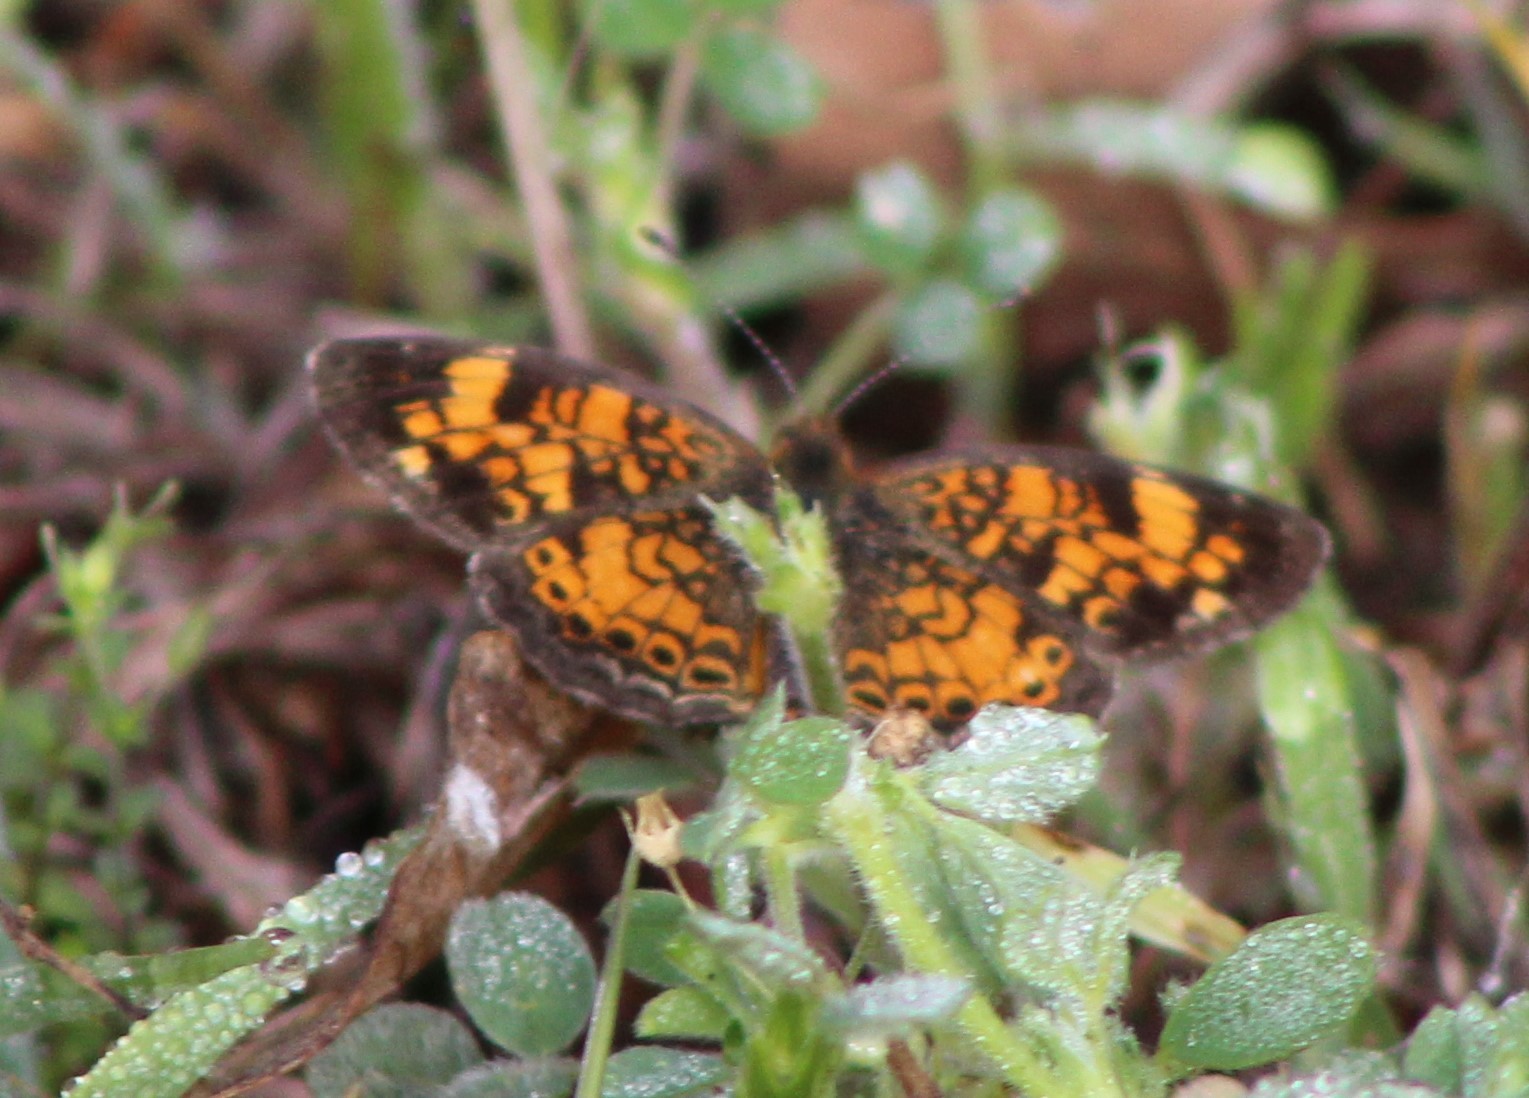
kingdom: Animalia
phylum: Arthropoda
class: Insecta
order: Lepidoptera
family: Nymphalidae
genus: Phyciodes
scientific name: Phyciodes tharos
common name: Pearl crescent
